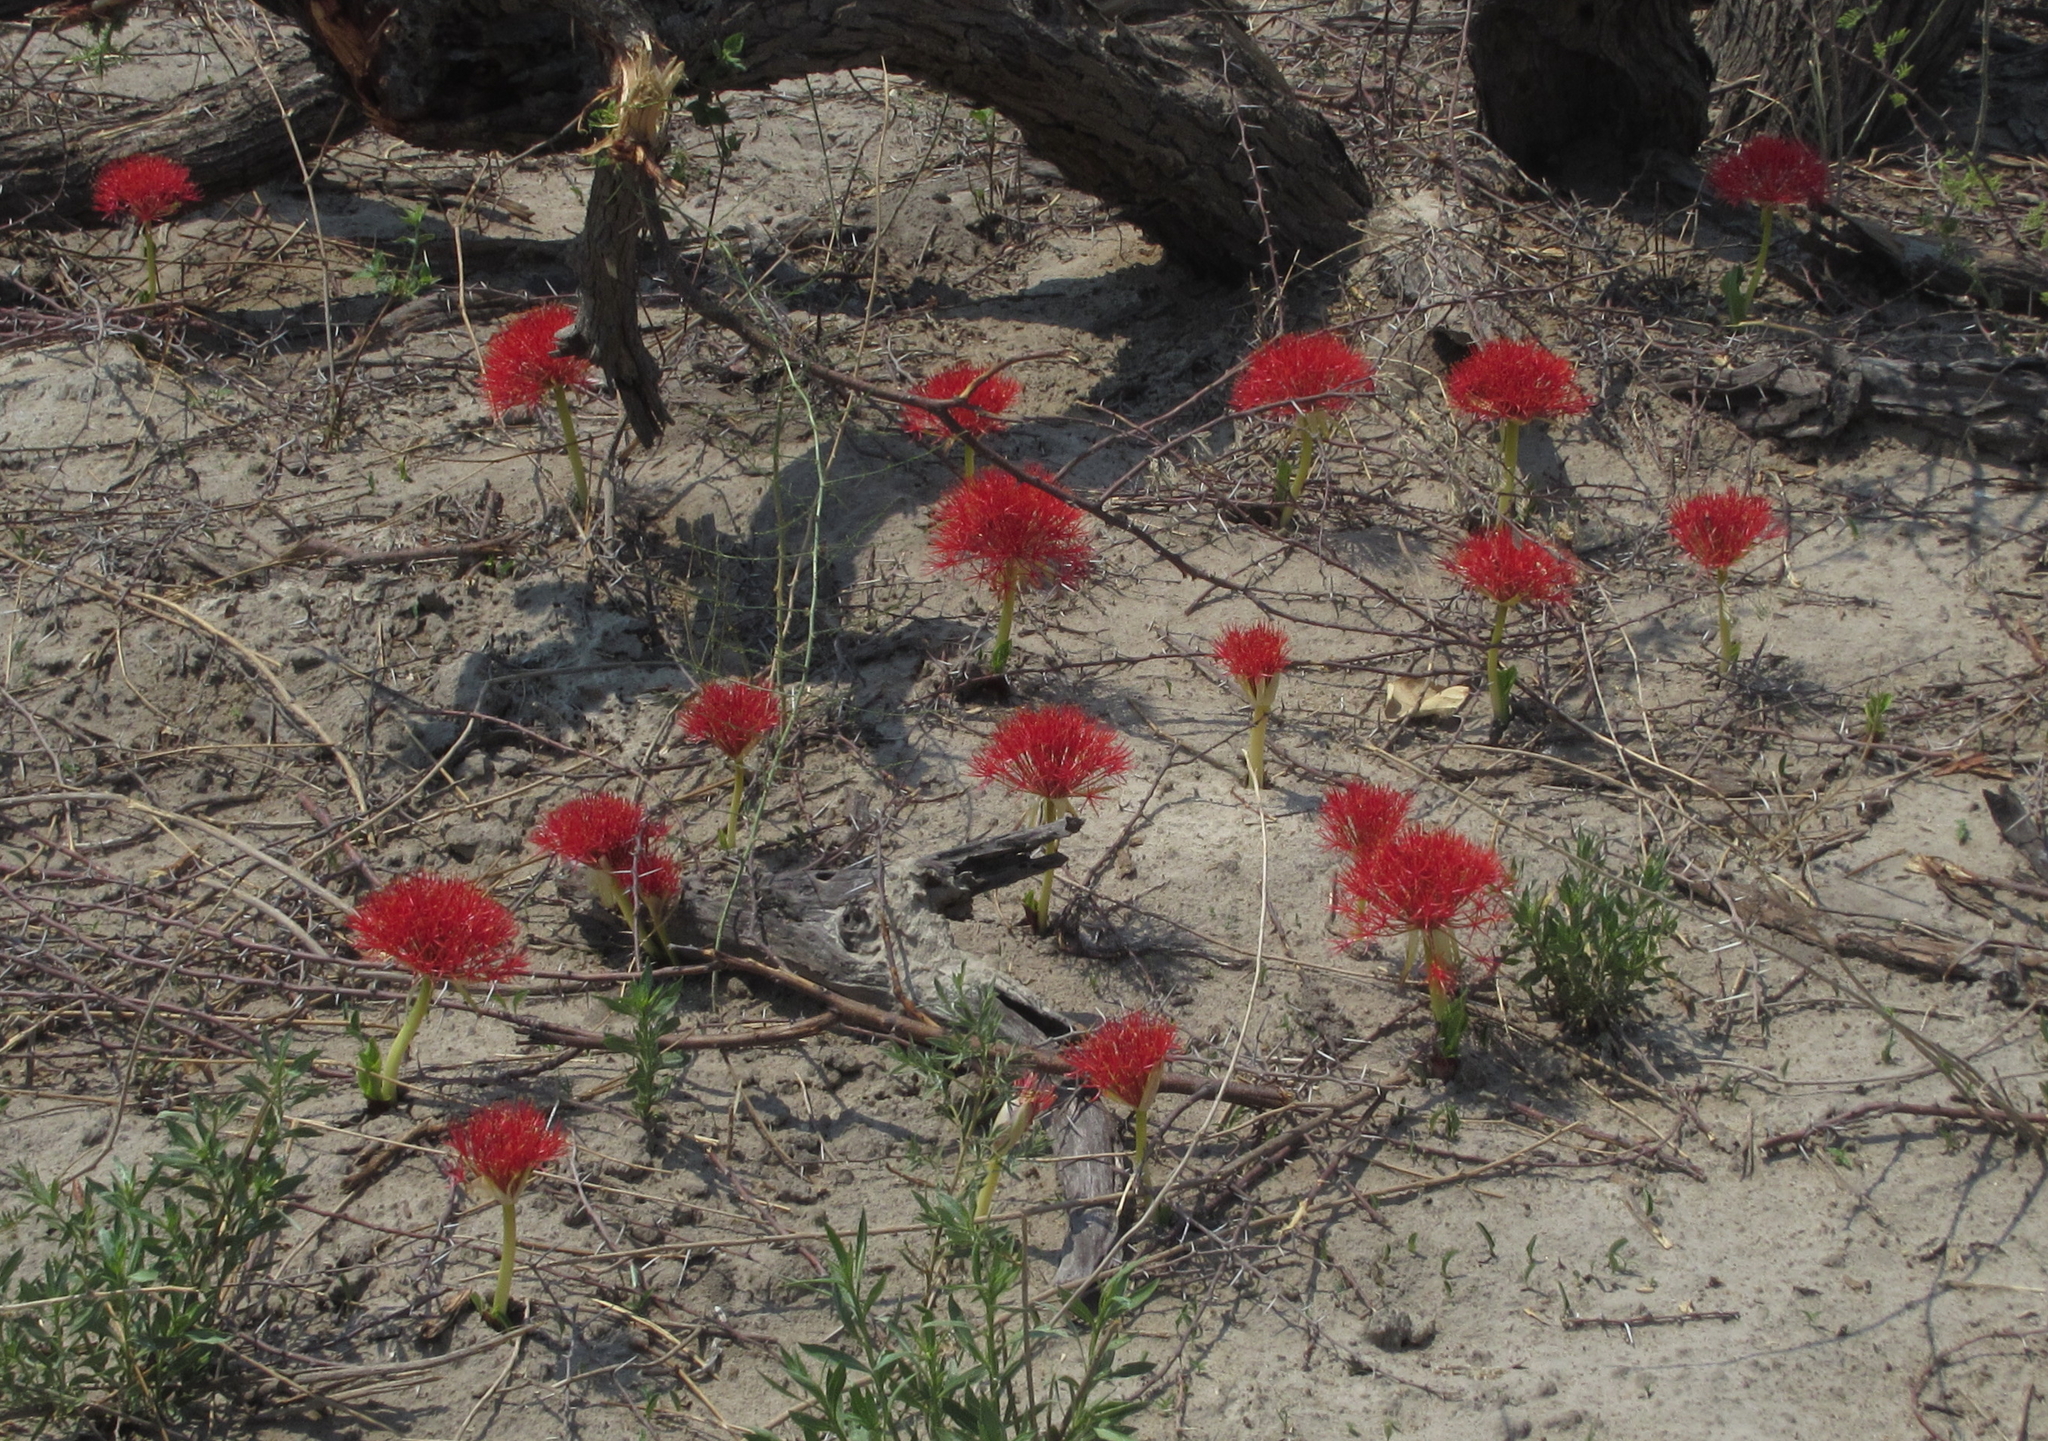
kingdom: Plantae
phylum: Tracheophyta
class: Liliopsida
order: Asparagales
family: Amaryllidaceae
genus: Scadoxus
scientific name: Scadoxus multiflorus
